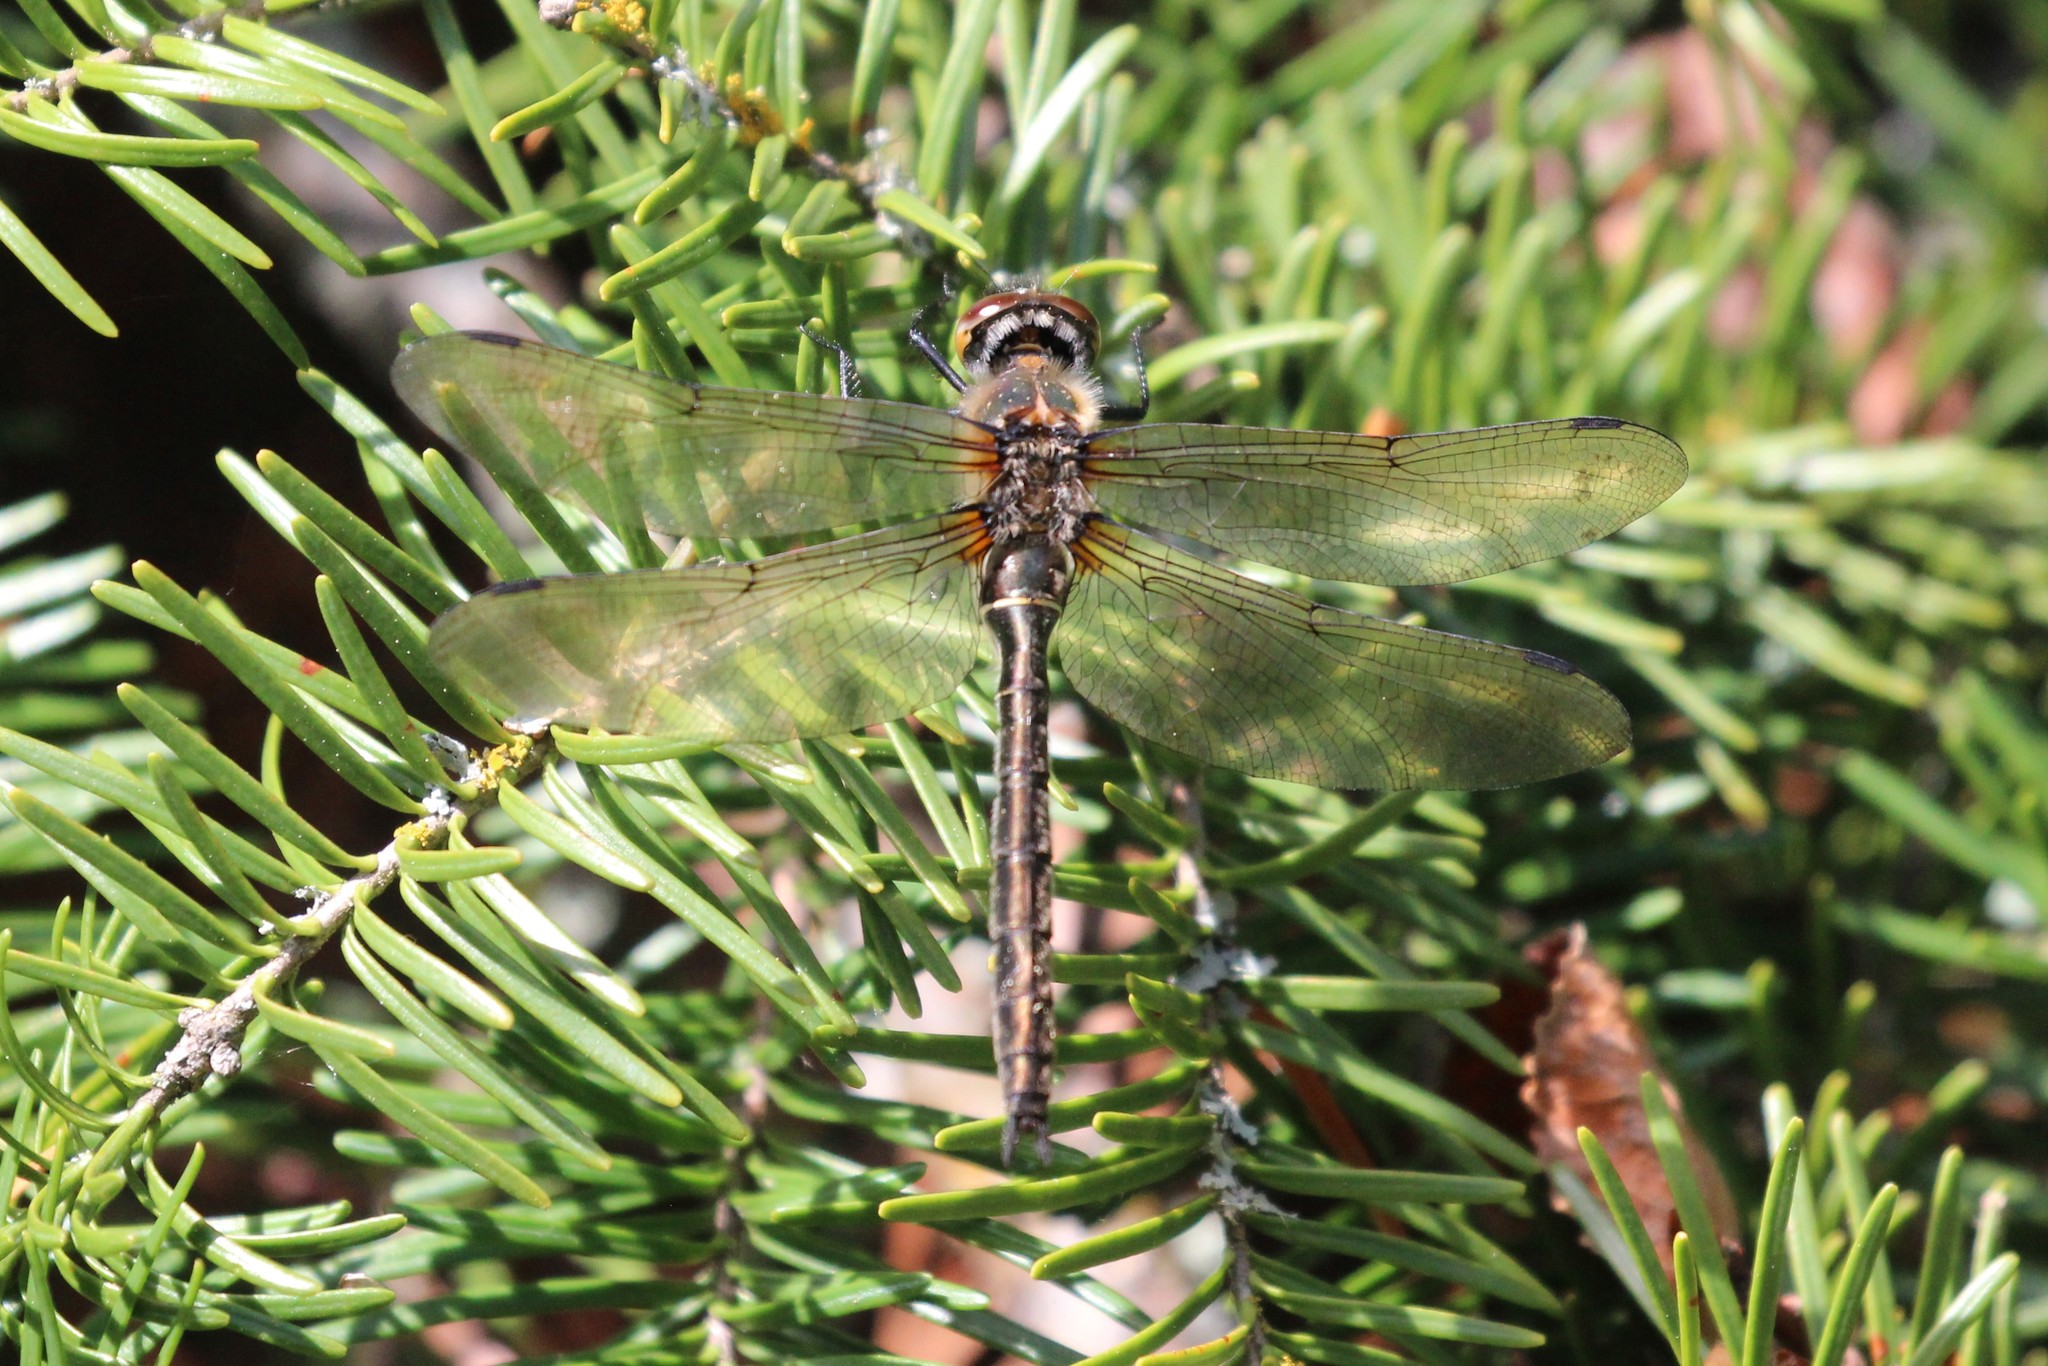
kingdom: Animalia
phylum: Arthropoda
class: Insecta
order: Odonata
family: Corduliidae
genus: Cordulia
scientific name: Cordulia shurtleffii
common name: American emerald
